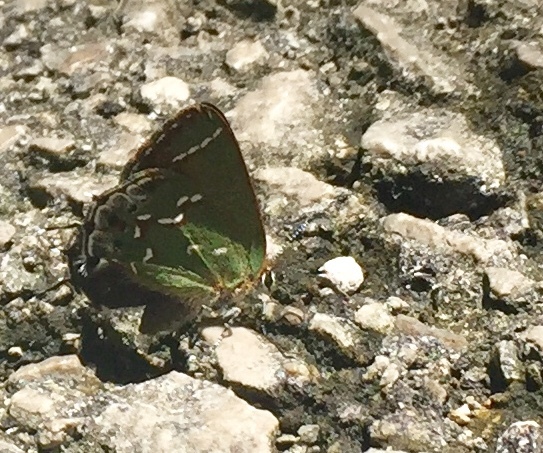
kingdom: Animalia
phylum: Arthropoda
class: Insecta
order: Lepidoptera
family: Lycaenidae
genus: Mitoura
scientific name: Mitoura gryneus
